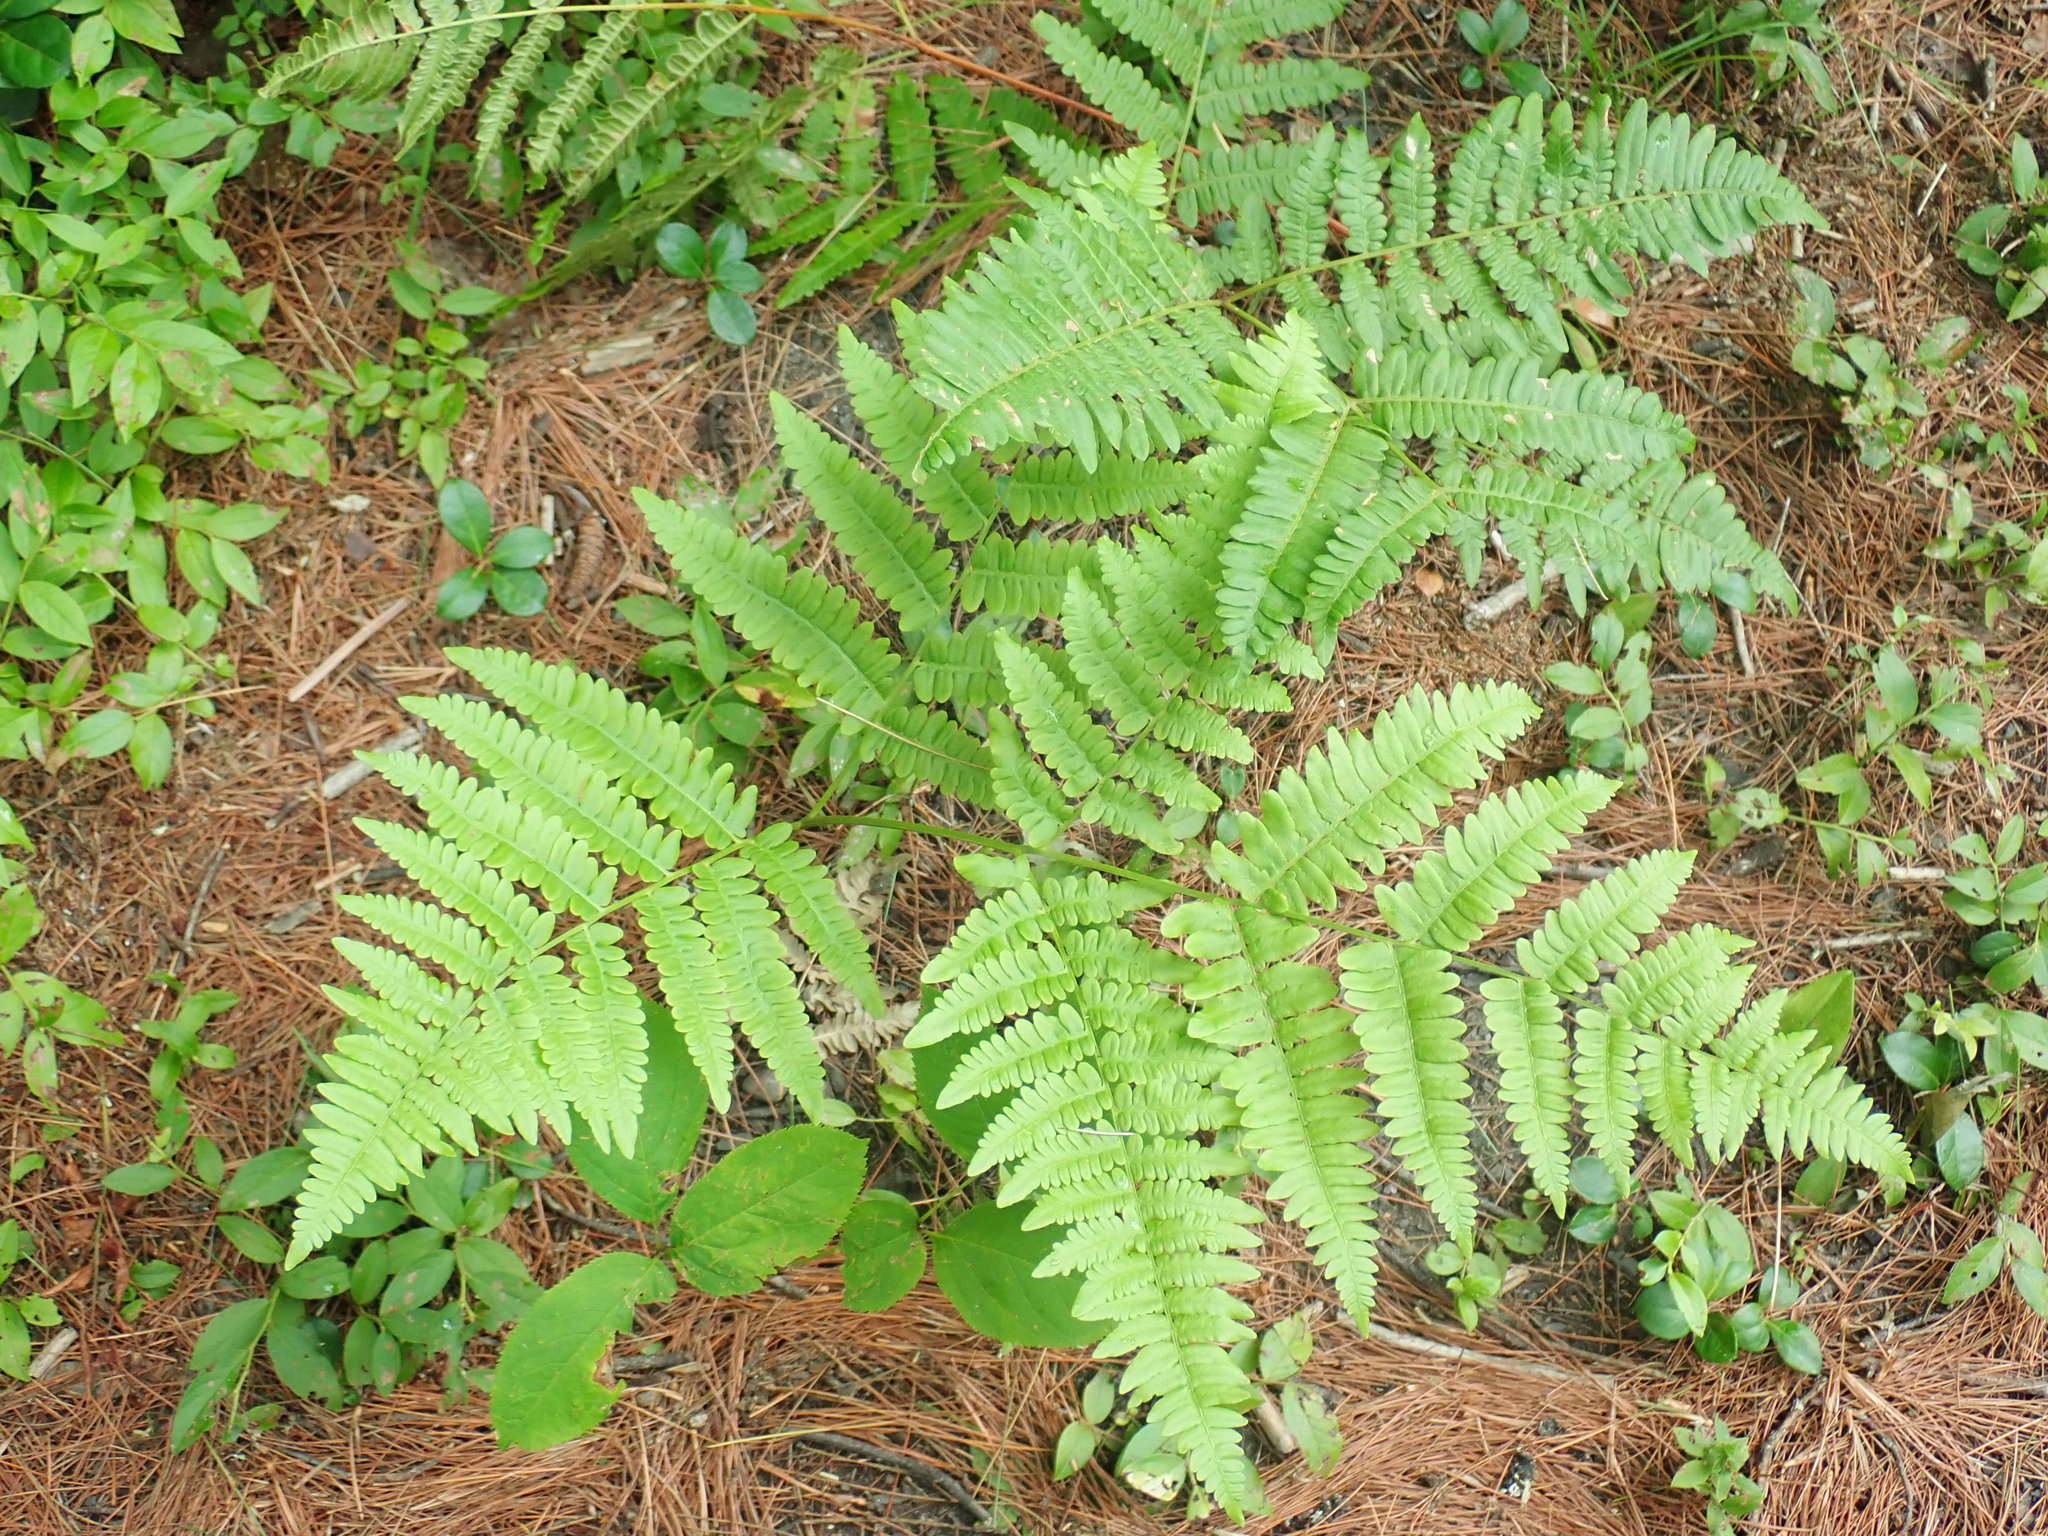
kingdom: Plantae
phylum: Tracheophyta
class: Polypodiopsida
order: Polypodiales
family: Dennstaedtiaceae
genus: Pteridium
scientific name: Pteridium aquilinum
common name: Bracken
